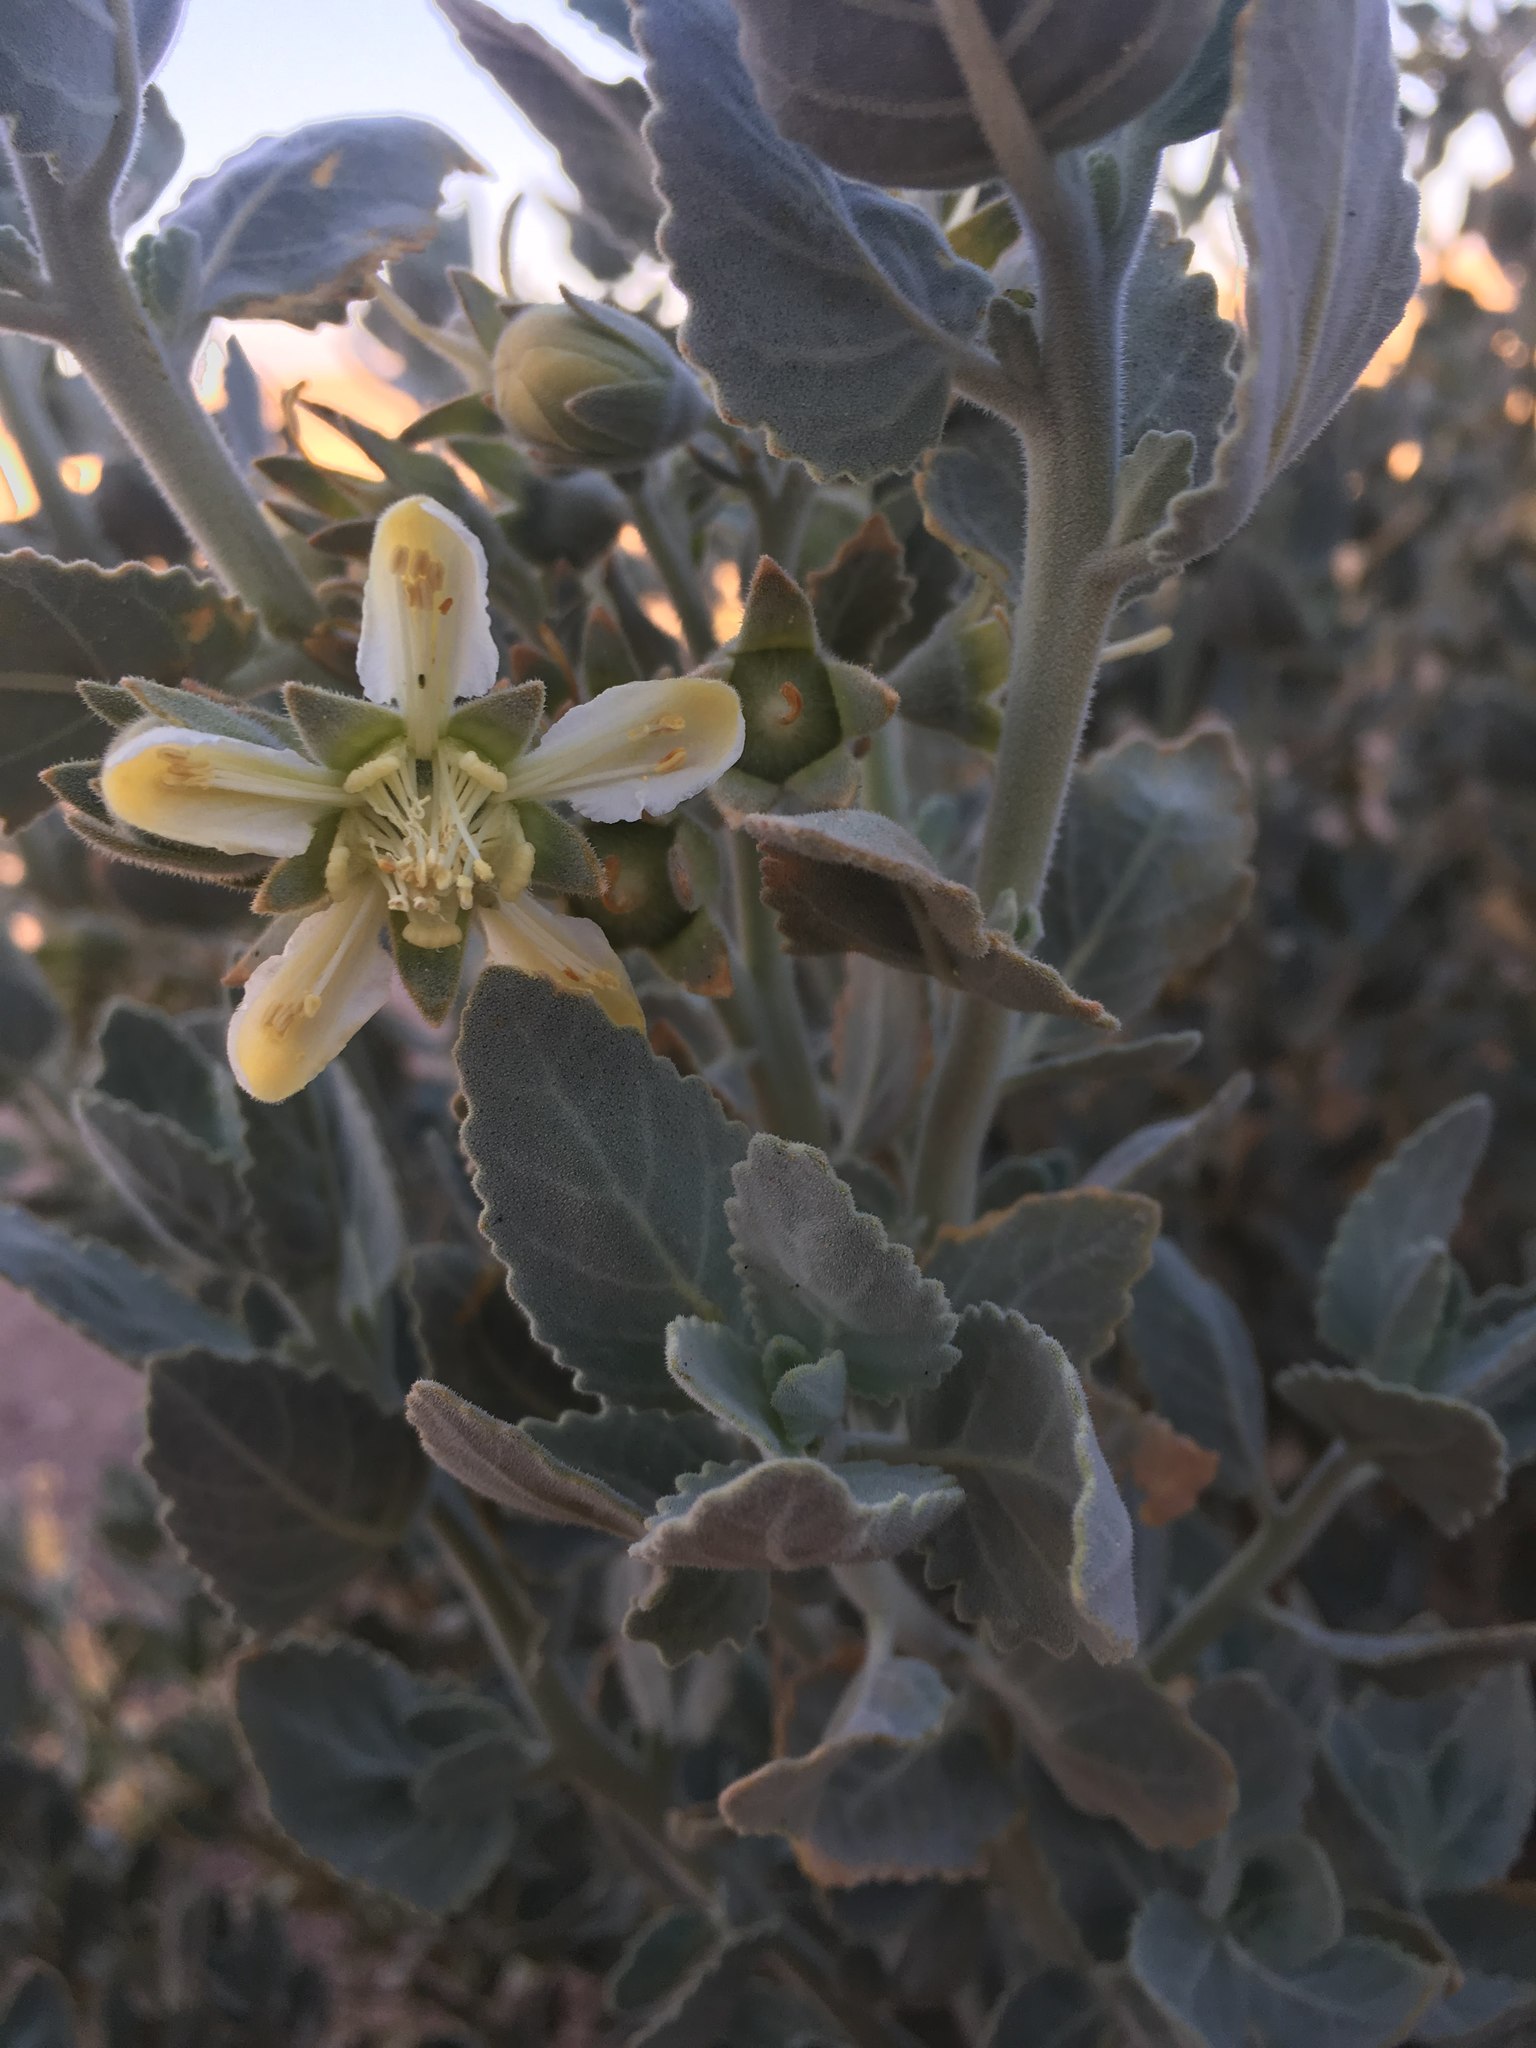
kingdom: Plantae
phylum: Tracheophyta
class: Magnoliopsida
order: Cornales
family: Loasaceae
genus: Huidobria
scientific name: Huidobria fruticosa
